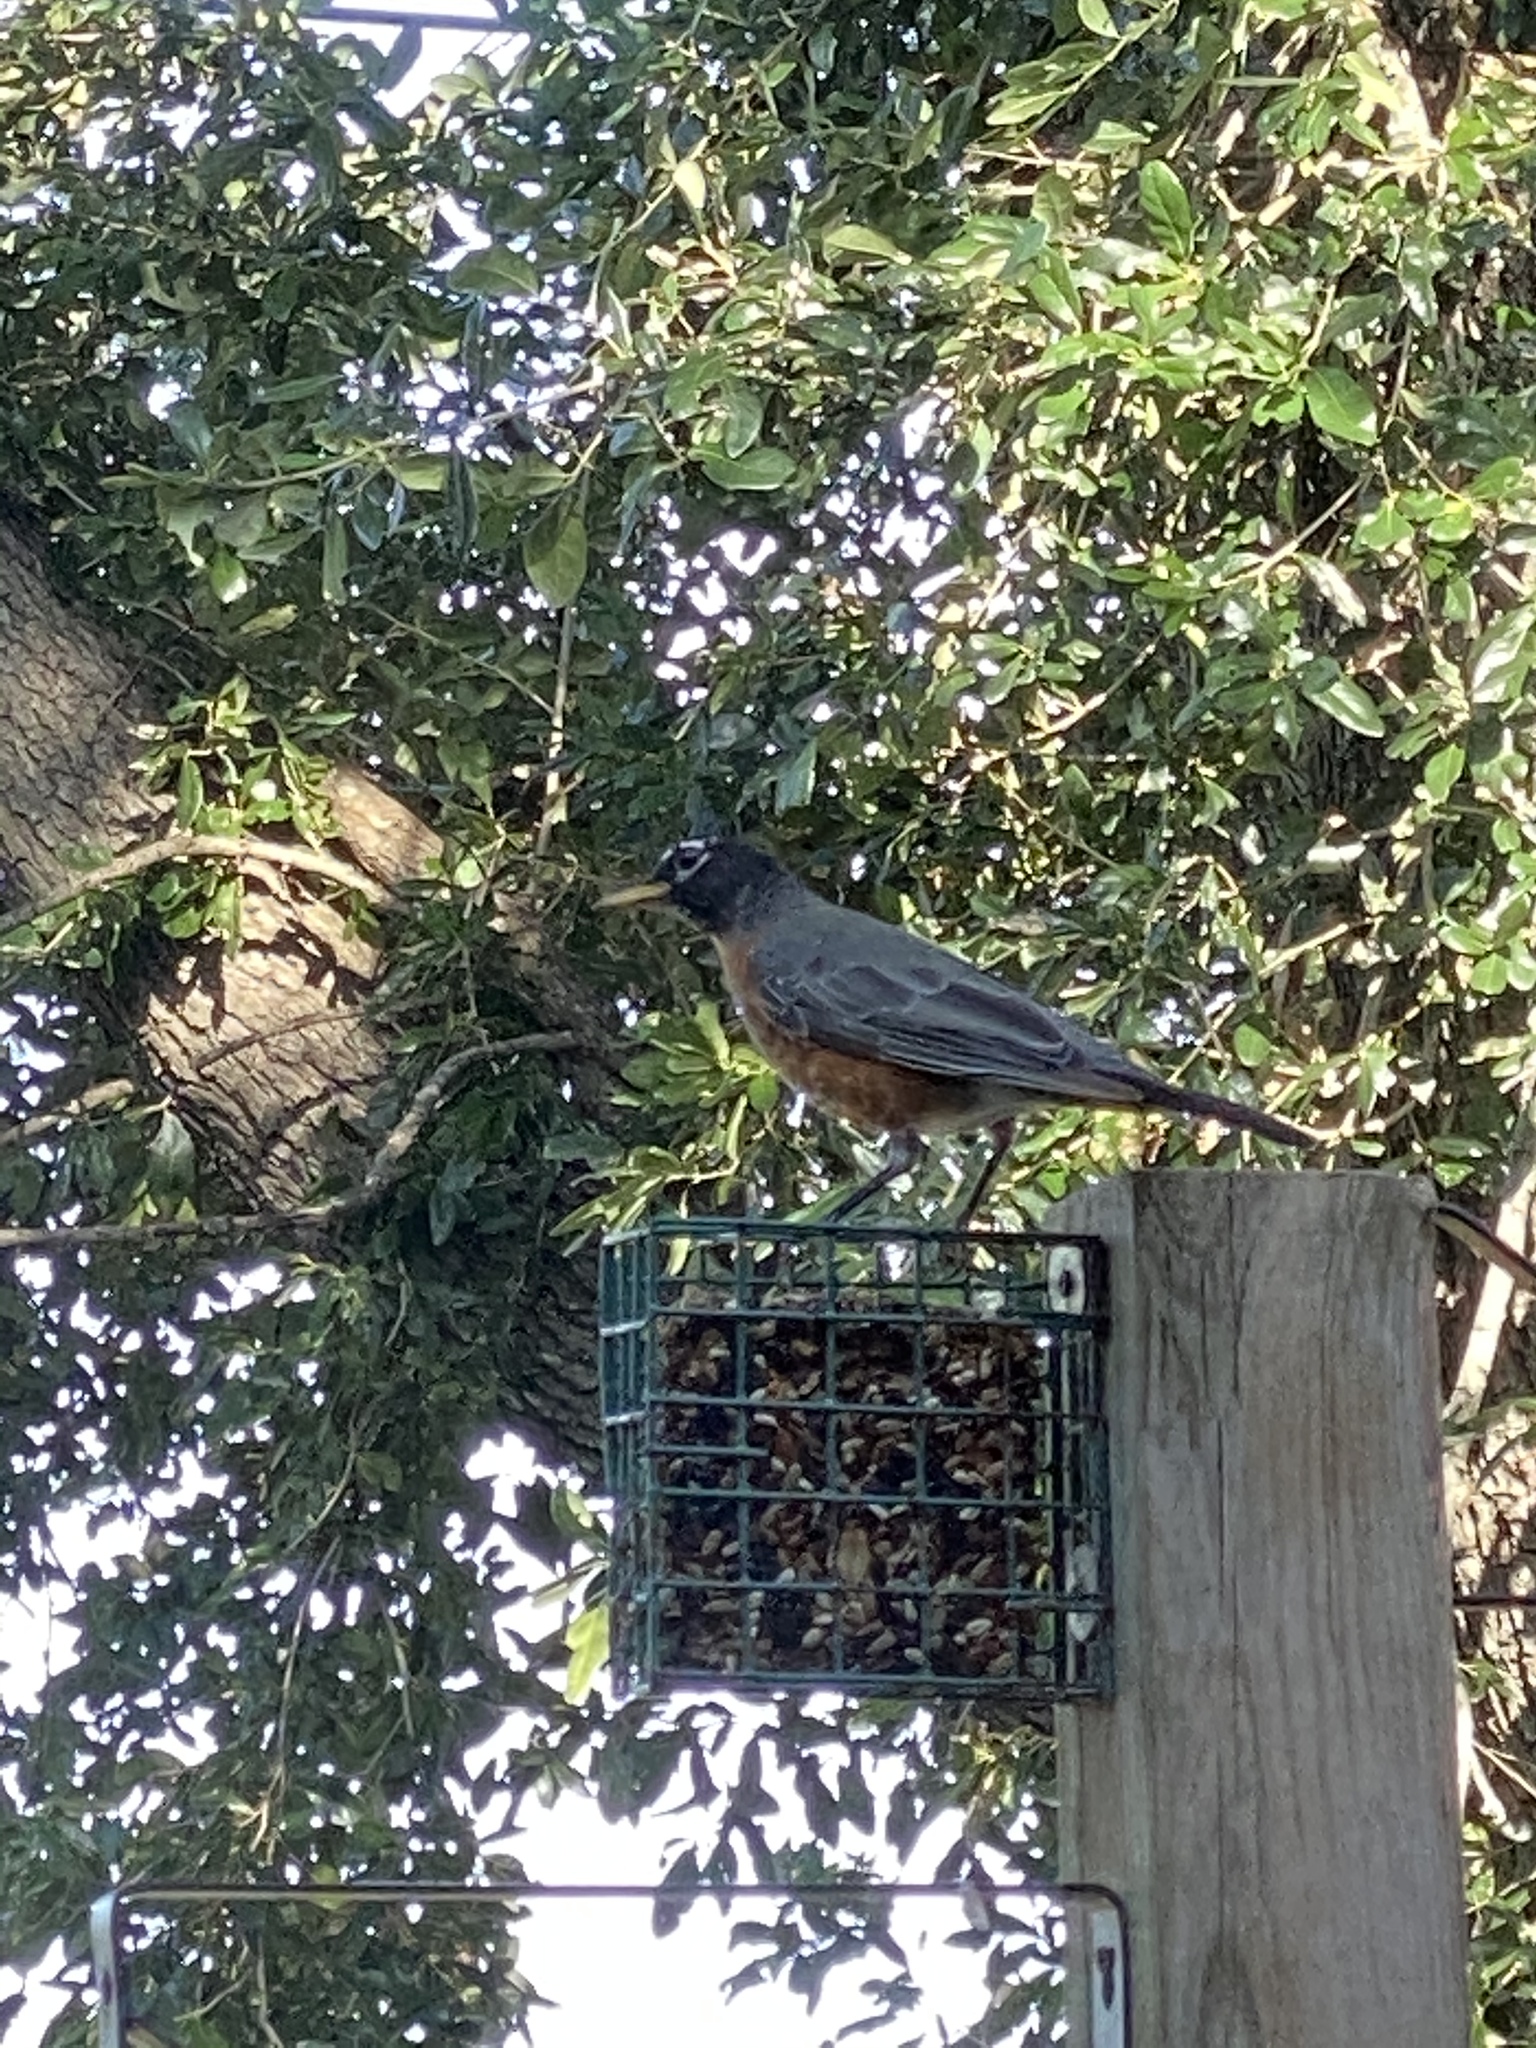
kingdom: Animalia
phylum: Chordata
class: Aves
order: Passeriformes
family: Turdidae
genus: Turdus
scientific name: Turdus migratorius
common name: American robin
